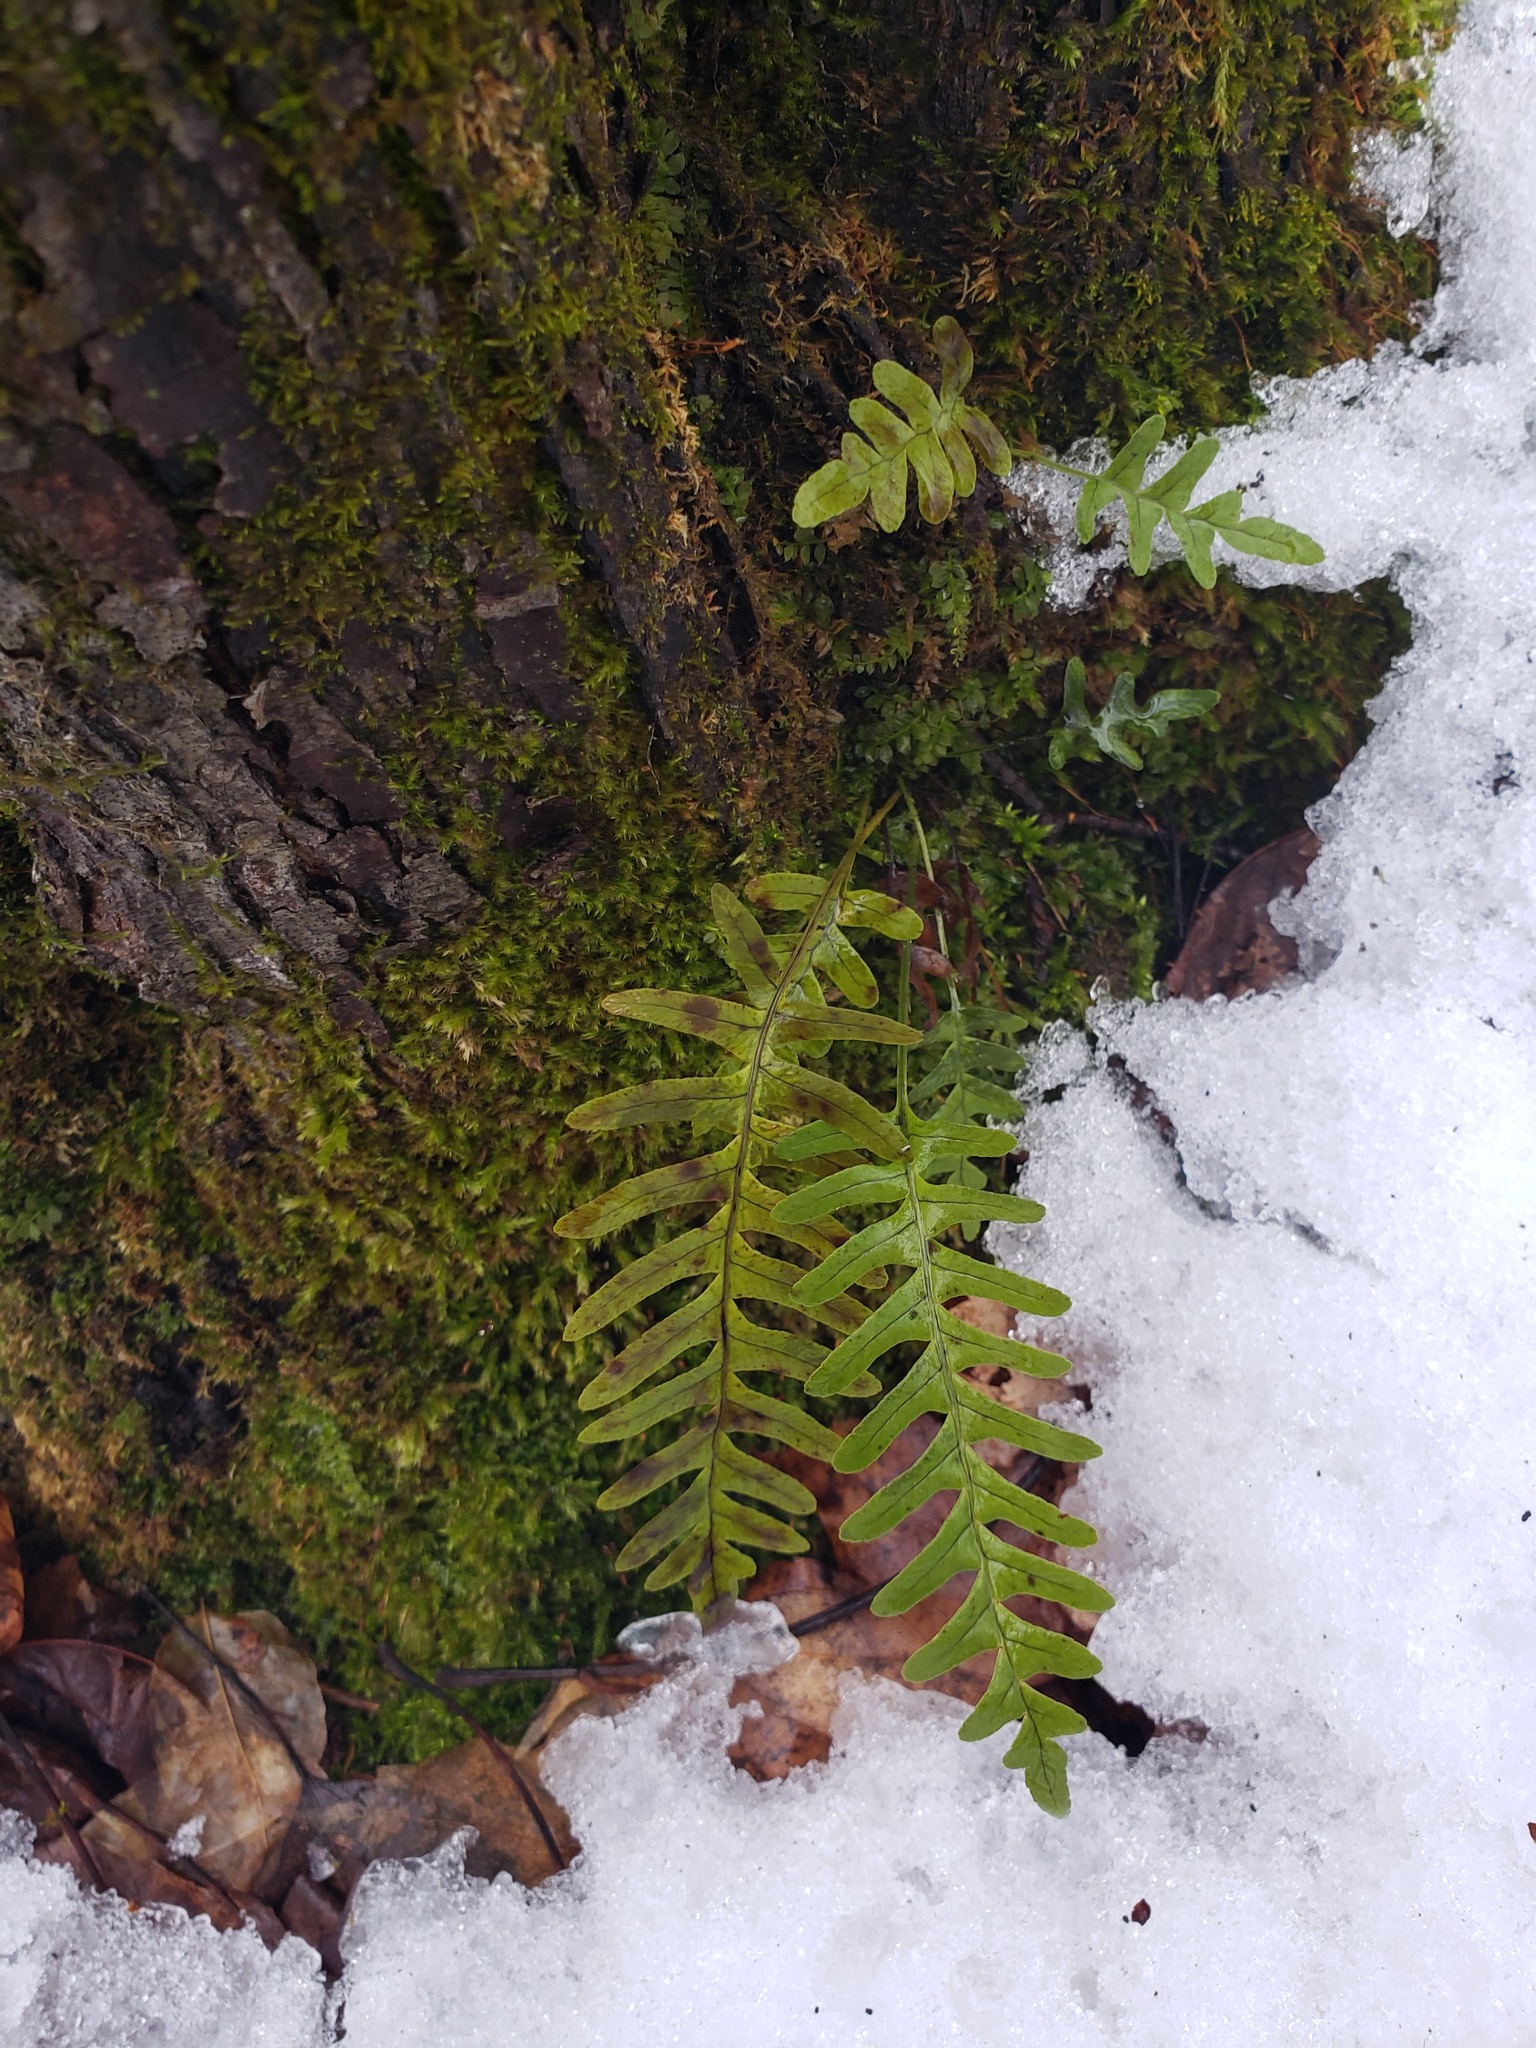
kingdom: Plantae
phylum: Tracheophyta
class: Polypodiopsida
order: Polypodiales
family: Polypodiaceae
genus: Polypodium
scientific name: Polypodium virginianum
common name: American wall fern
